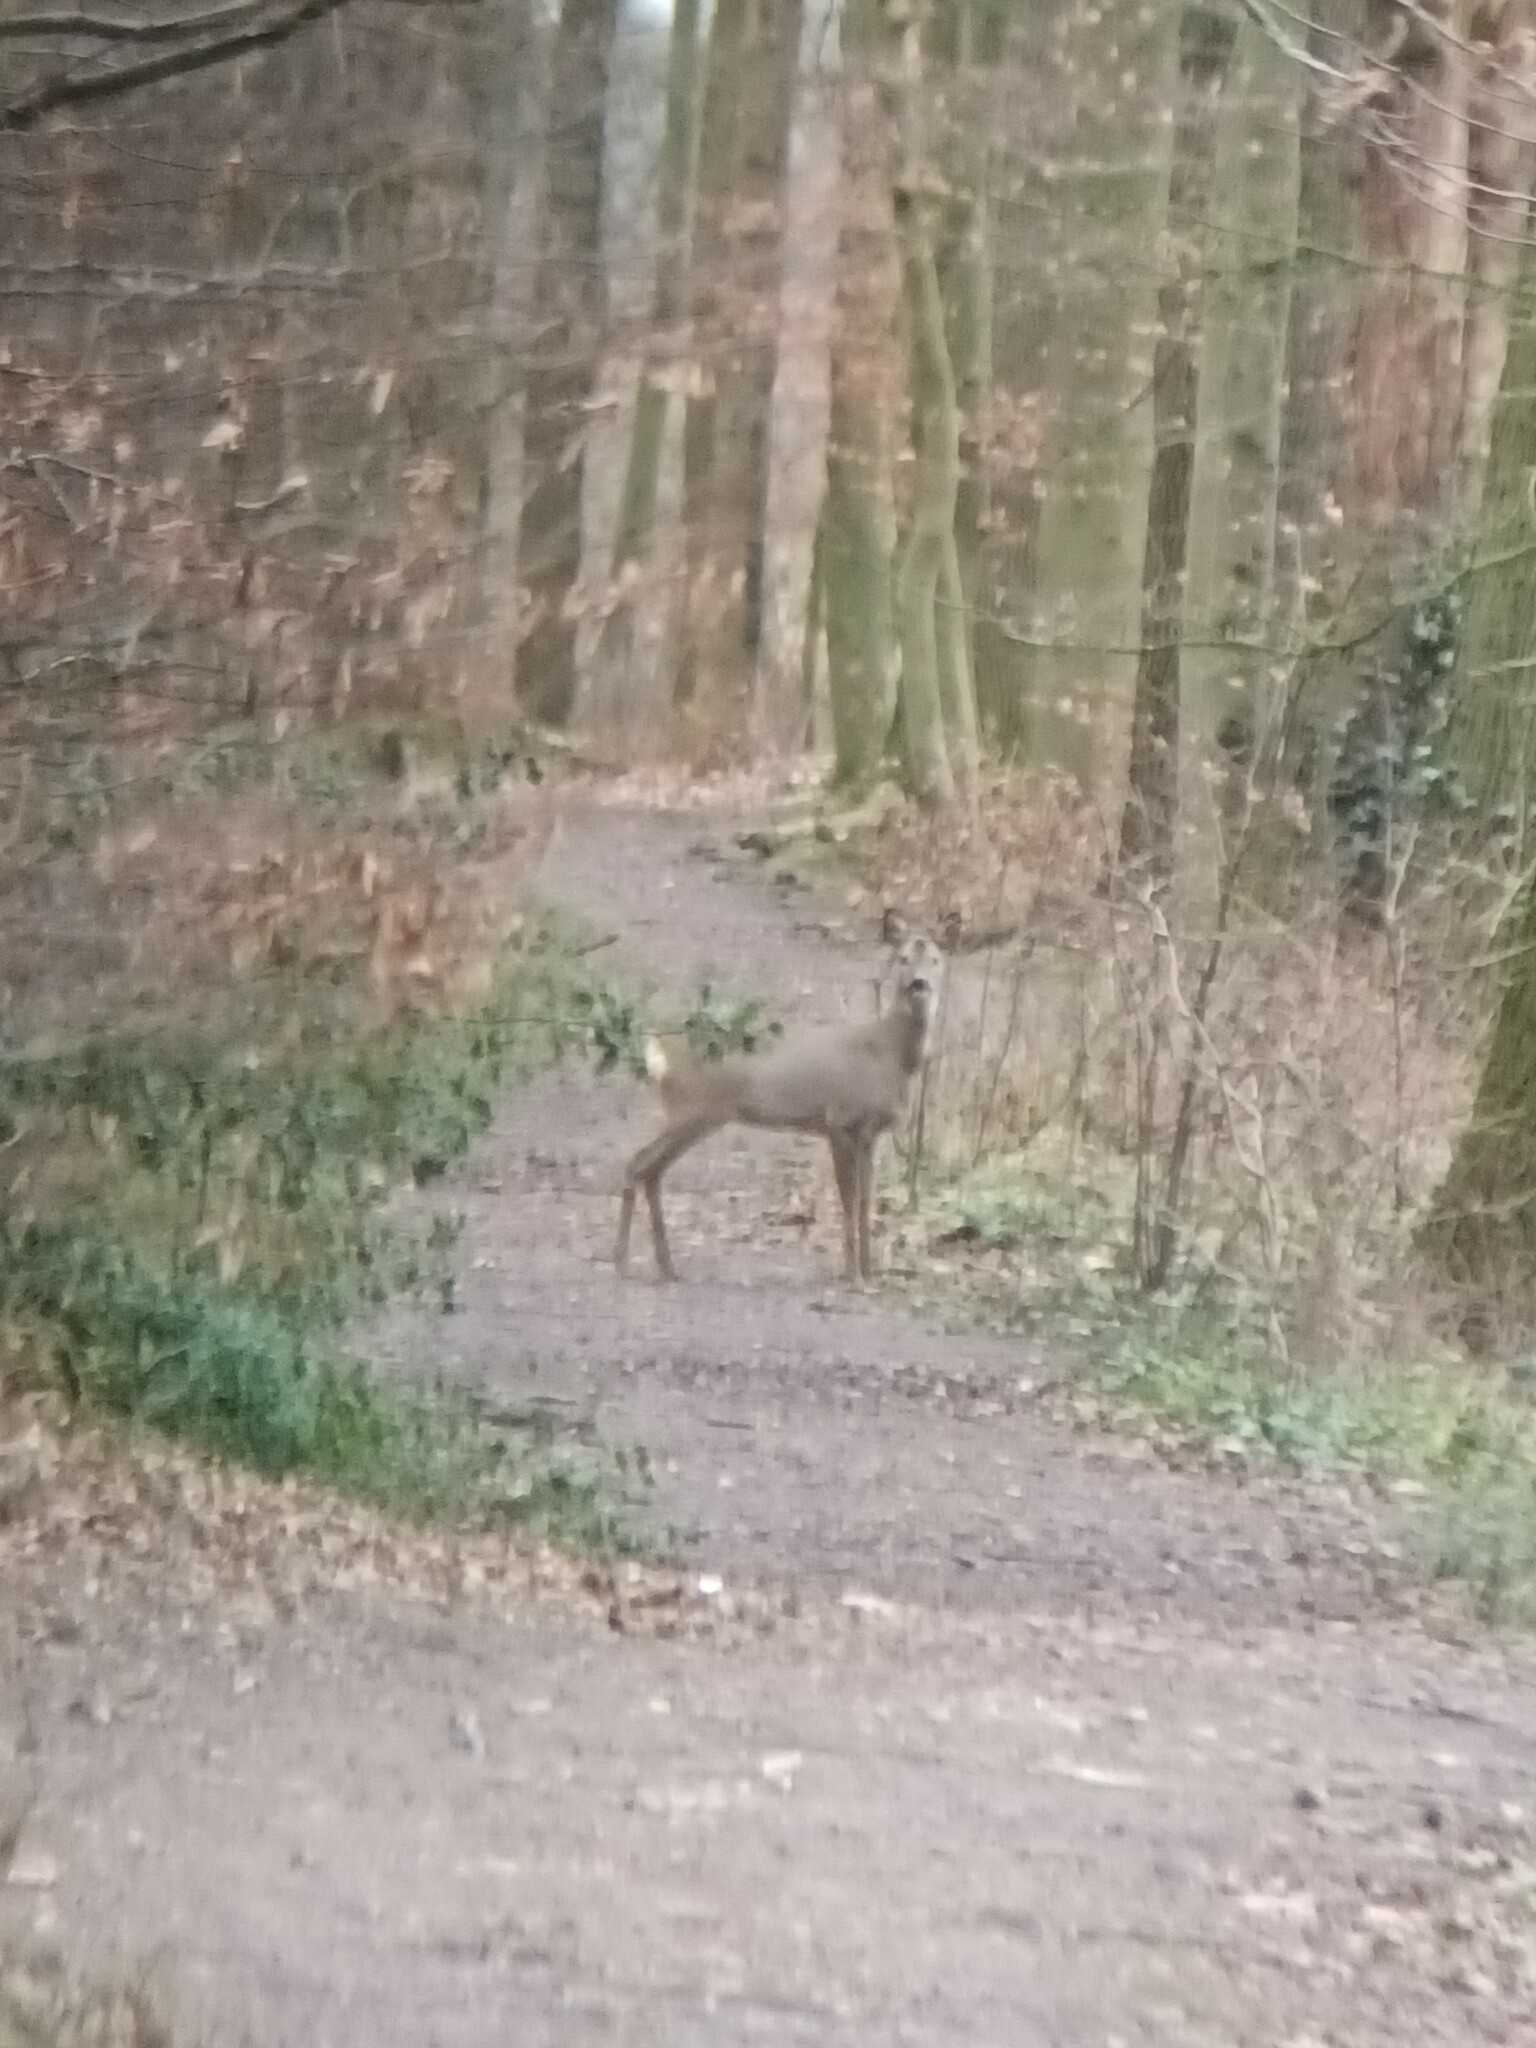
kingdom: Animalia
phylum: Chordata
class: Mammalia
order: Artiodactyla
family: Cervidae
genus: Capreolus
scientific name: Capreolus capreolus
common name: Western roe deer
